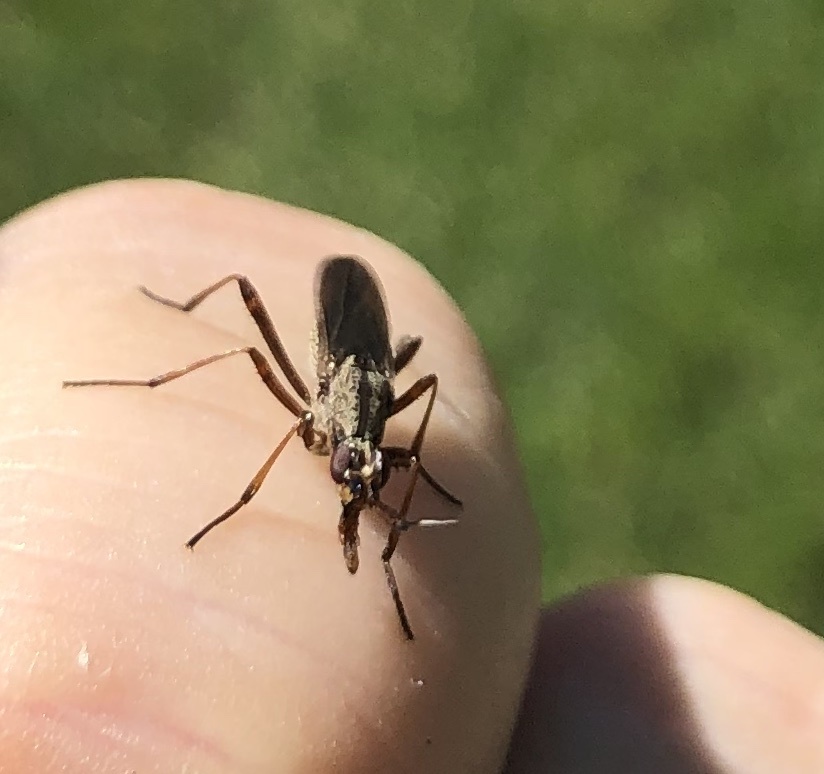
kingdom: Animalia
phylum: Arthropoda
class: Insecta
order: Diptera
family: Neriidae
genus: Odontoloxozus
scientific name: Odontoloxozus longicornis
